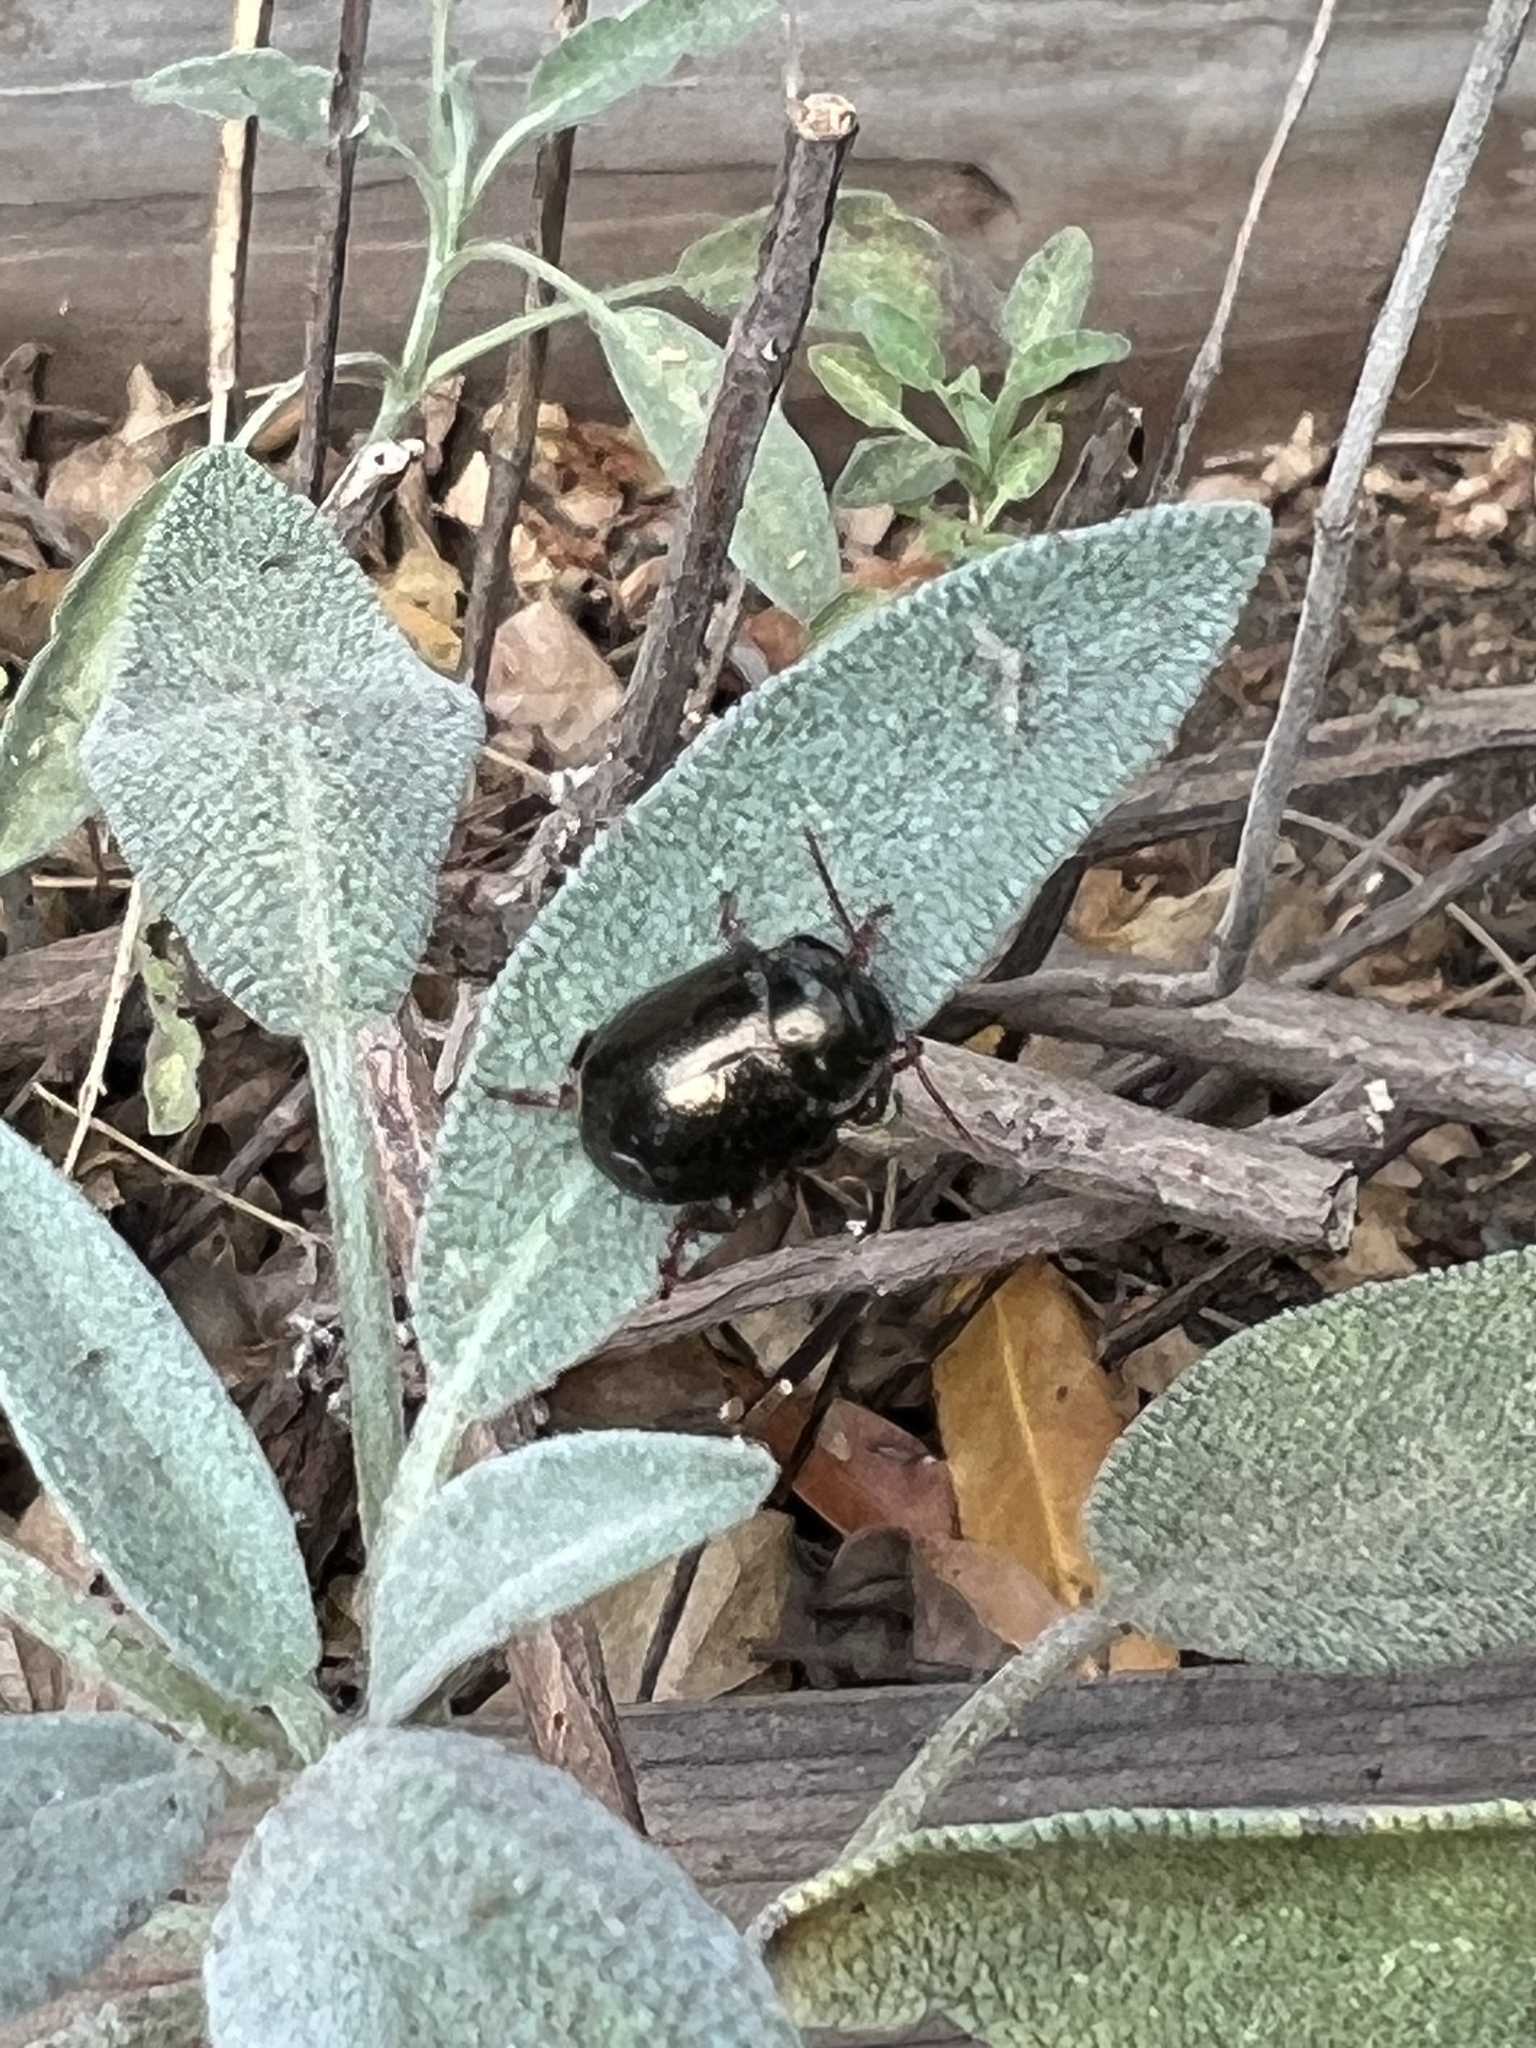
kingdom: Animalia
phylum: Arthropoda
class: Insecta
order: Coleoptera
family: Chrysomelidae
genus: Chrysolina
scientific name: Chrysolina bankii
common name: Leaf beetle
